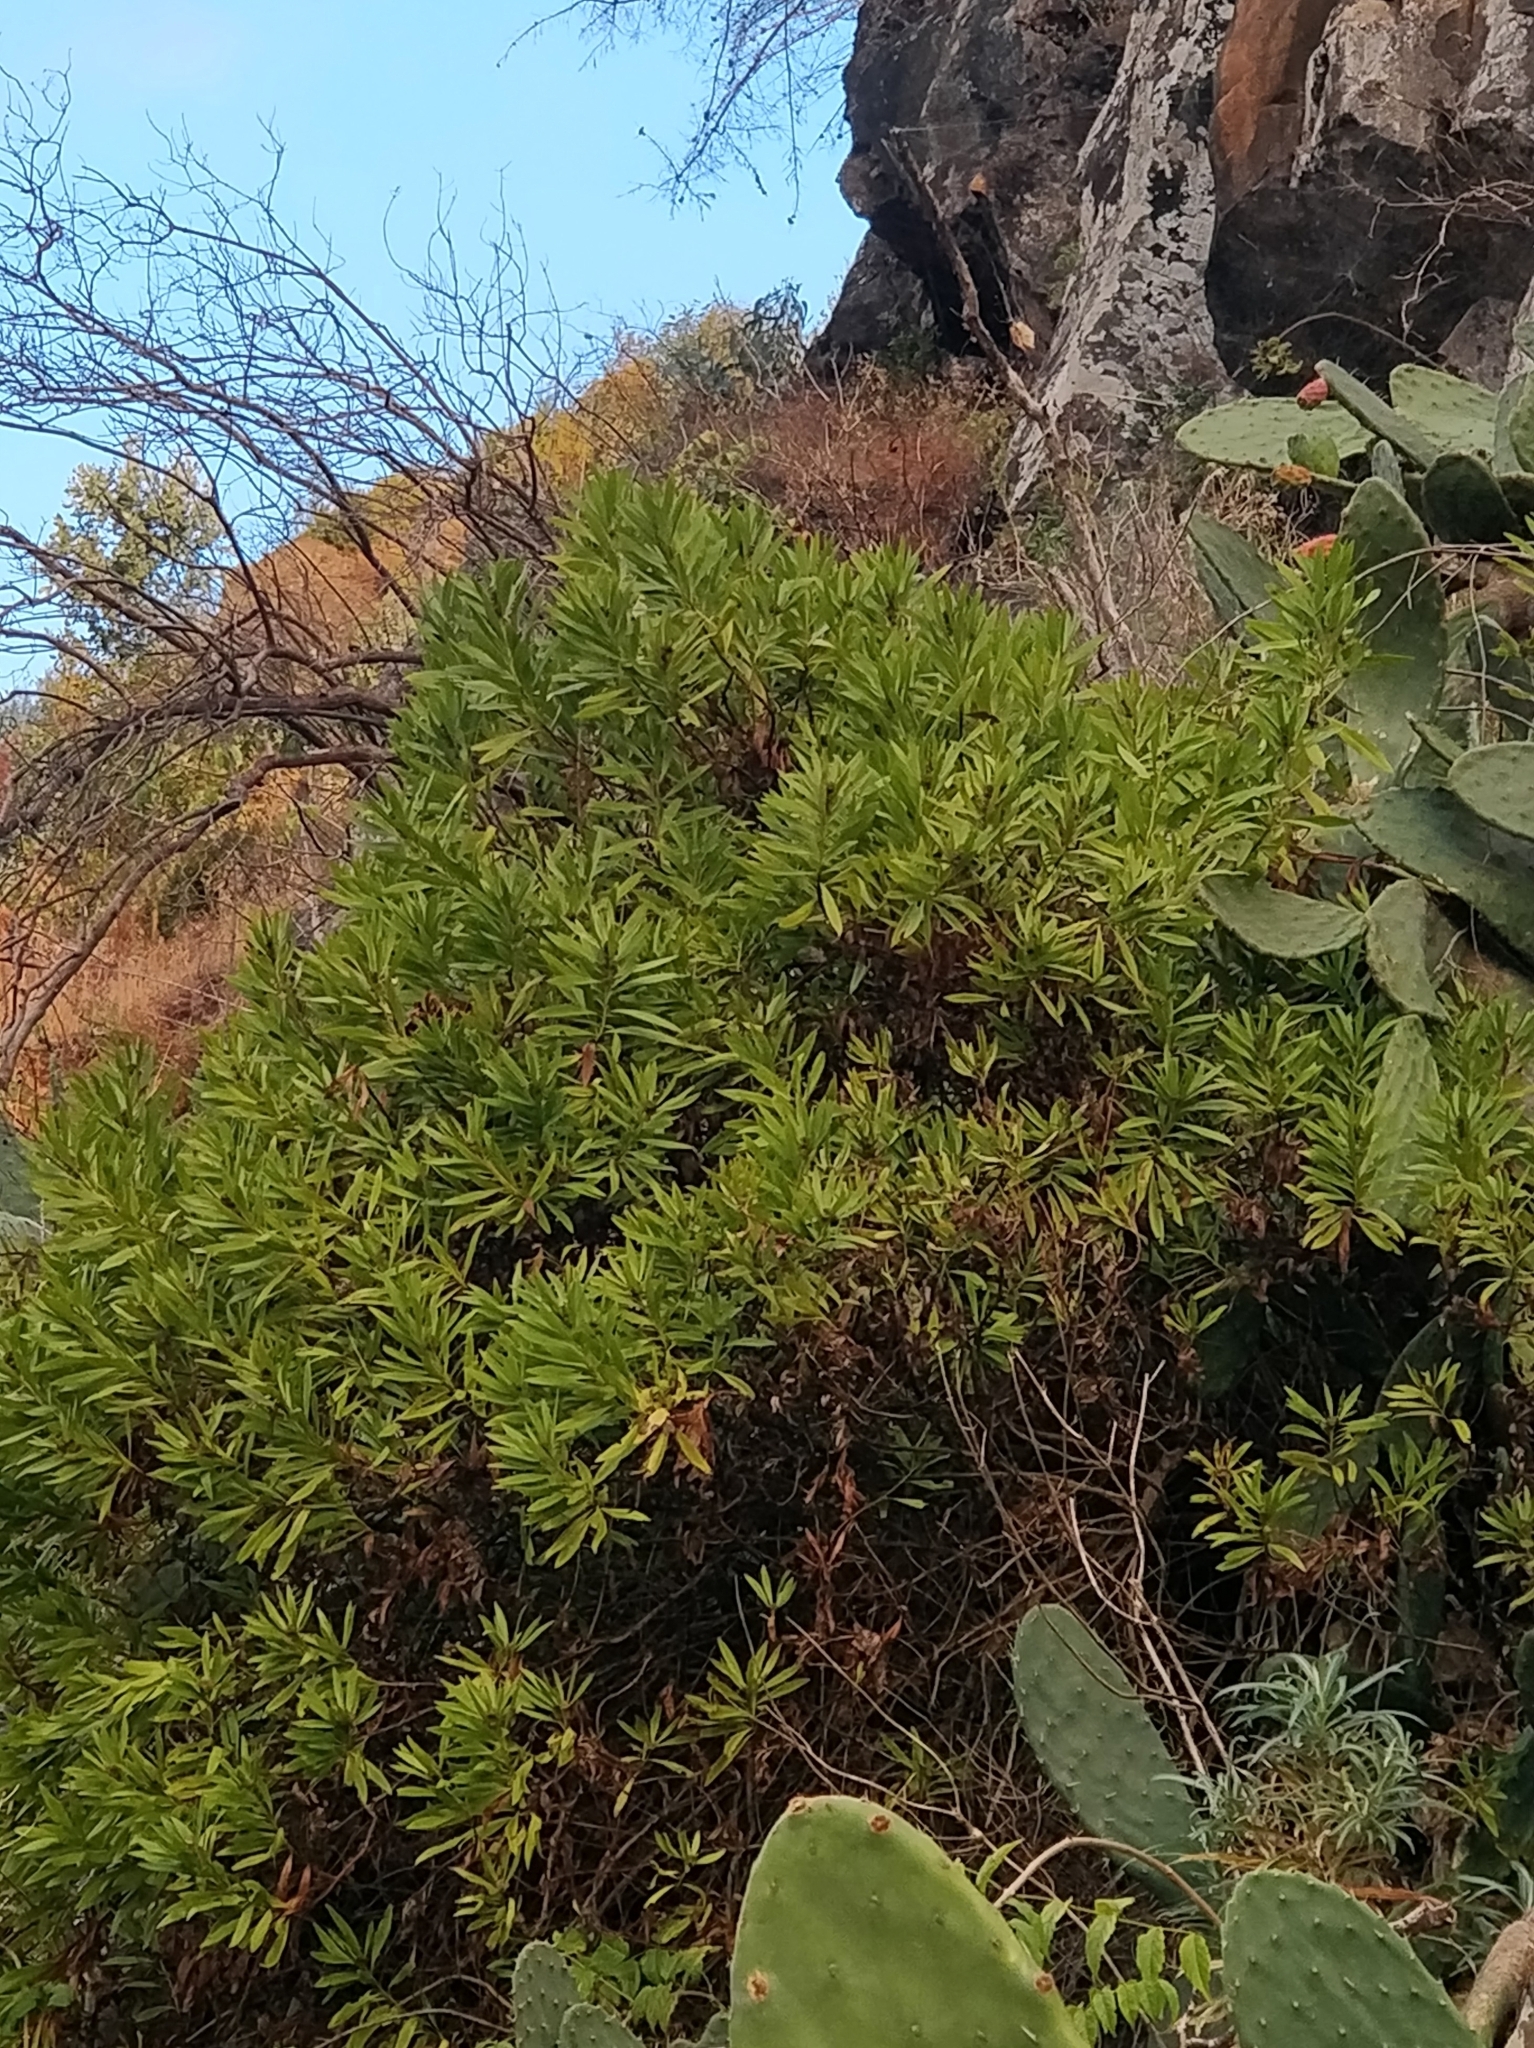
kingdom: Plantae
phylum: Tracheophyta
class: Magnoliopsida
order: Lamiales
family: Plantaginaceae
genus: Globularia
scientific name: Globularia salicina
